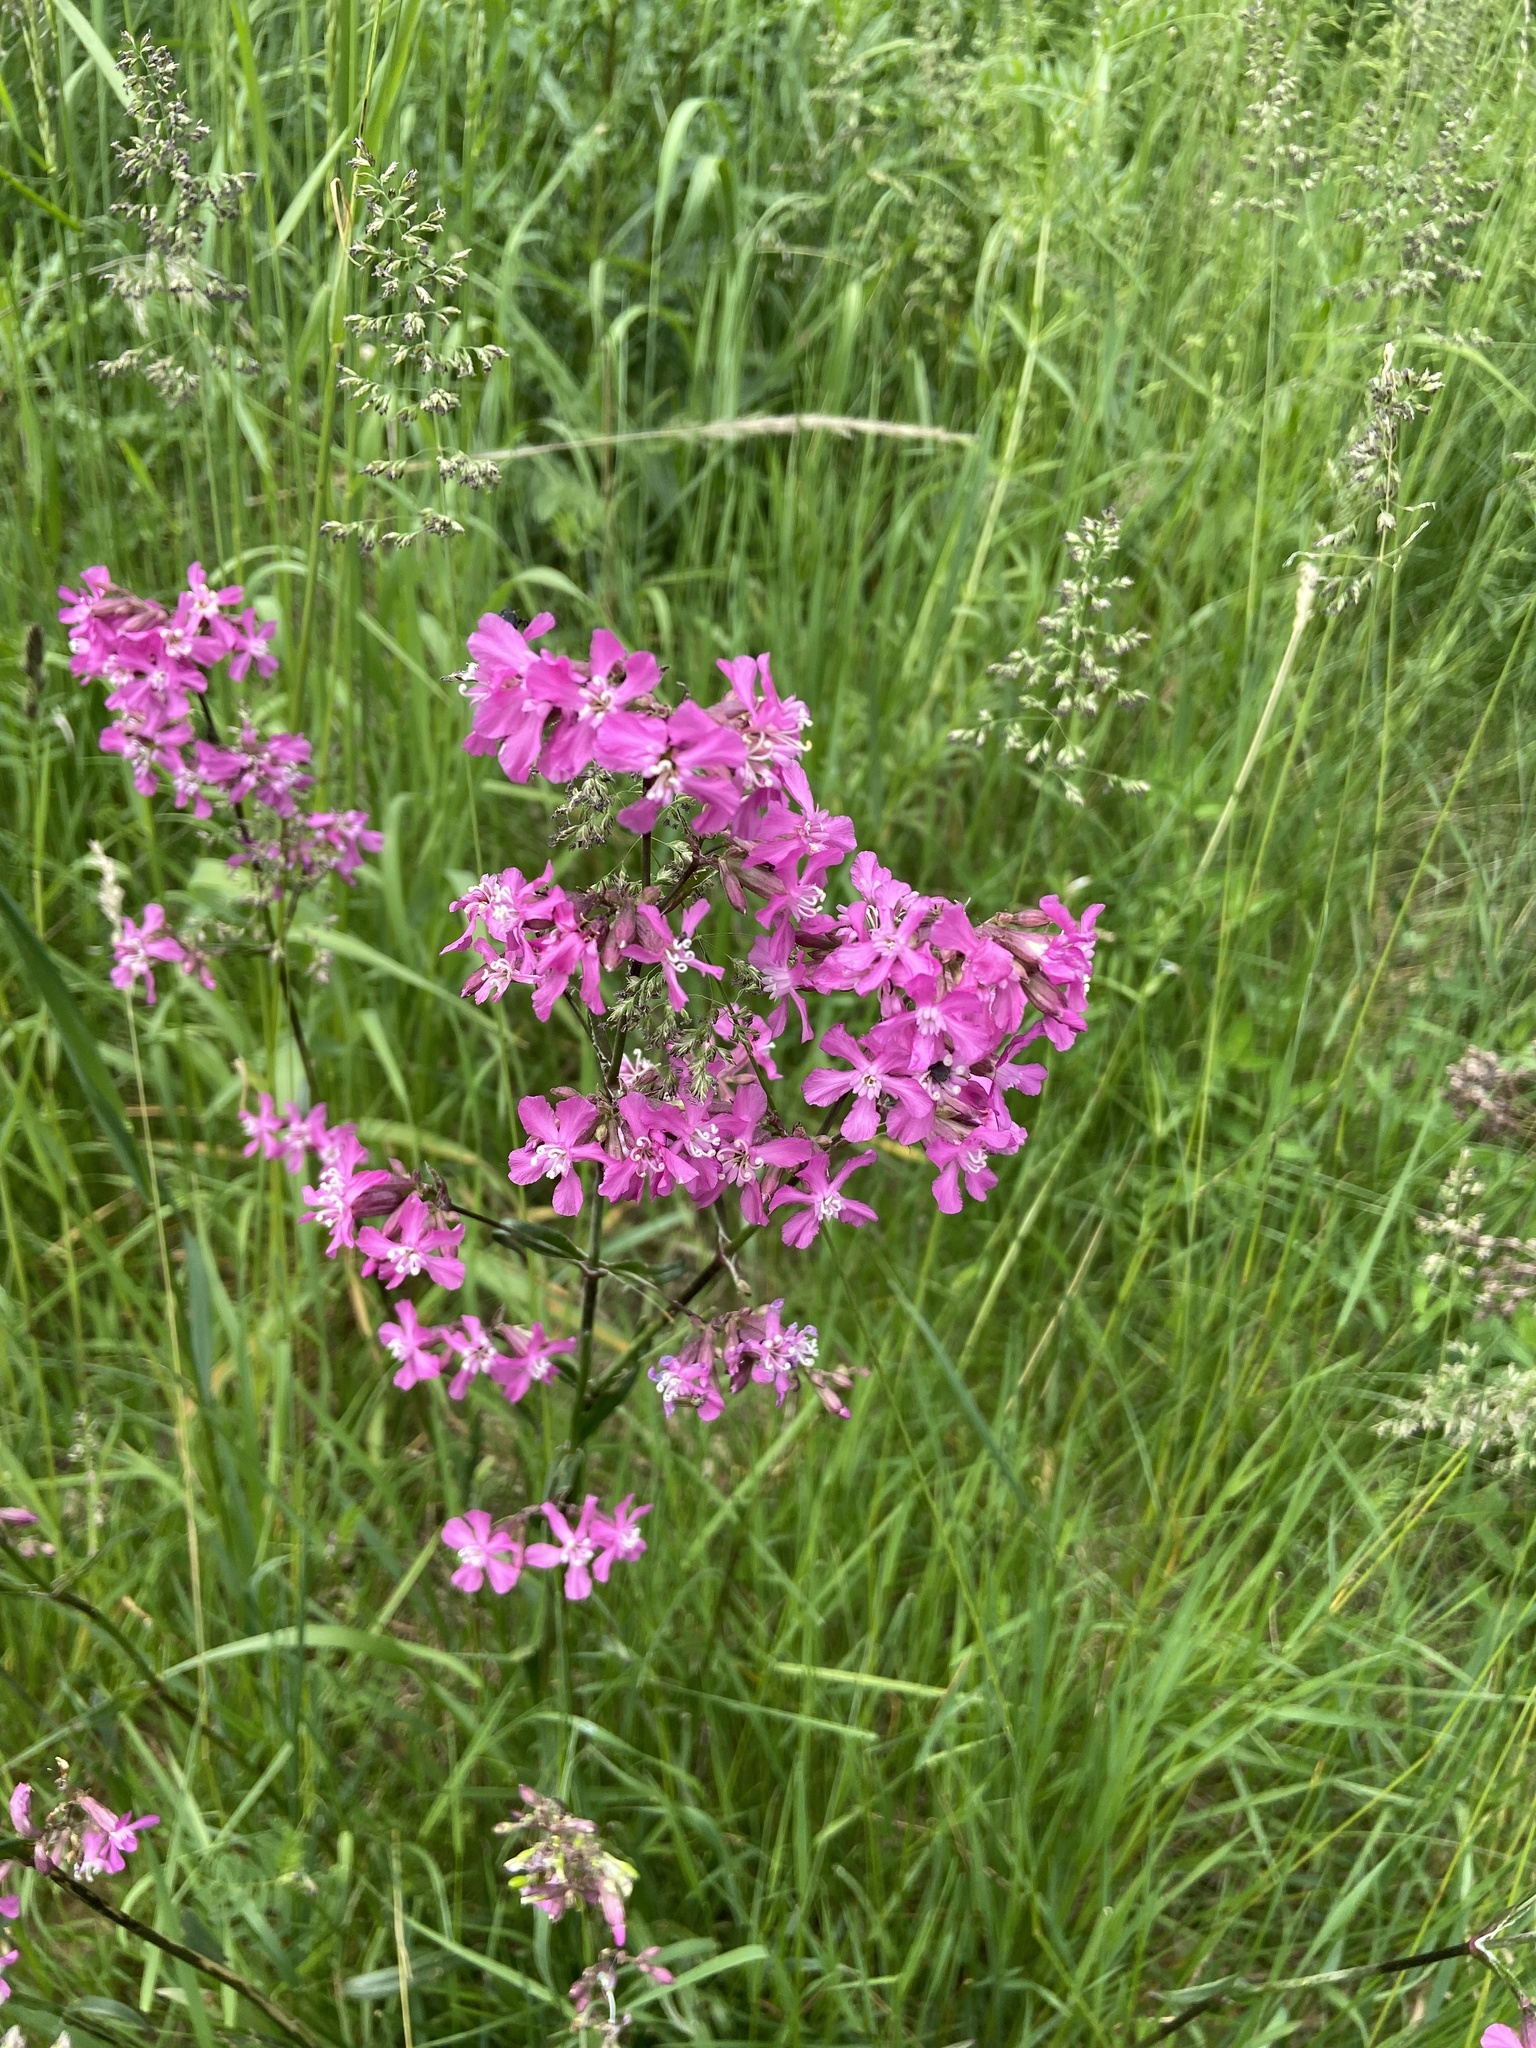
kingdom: Plantae
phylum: Tracheophyta
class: Magnoliopsida
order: Caryophyllales
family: Caryophyllaceae
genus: Viscaria
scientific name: Viscaria vulgaris
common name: Clammy campion
